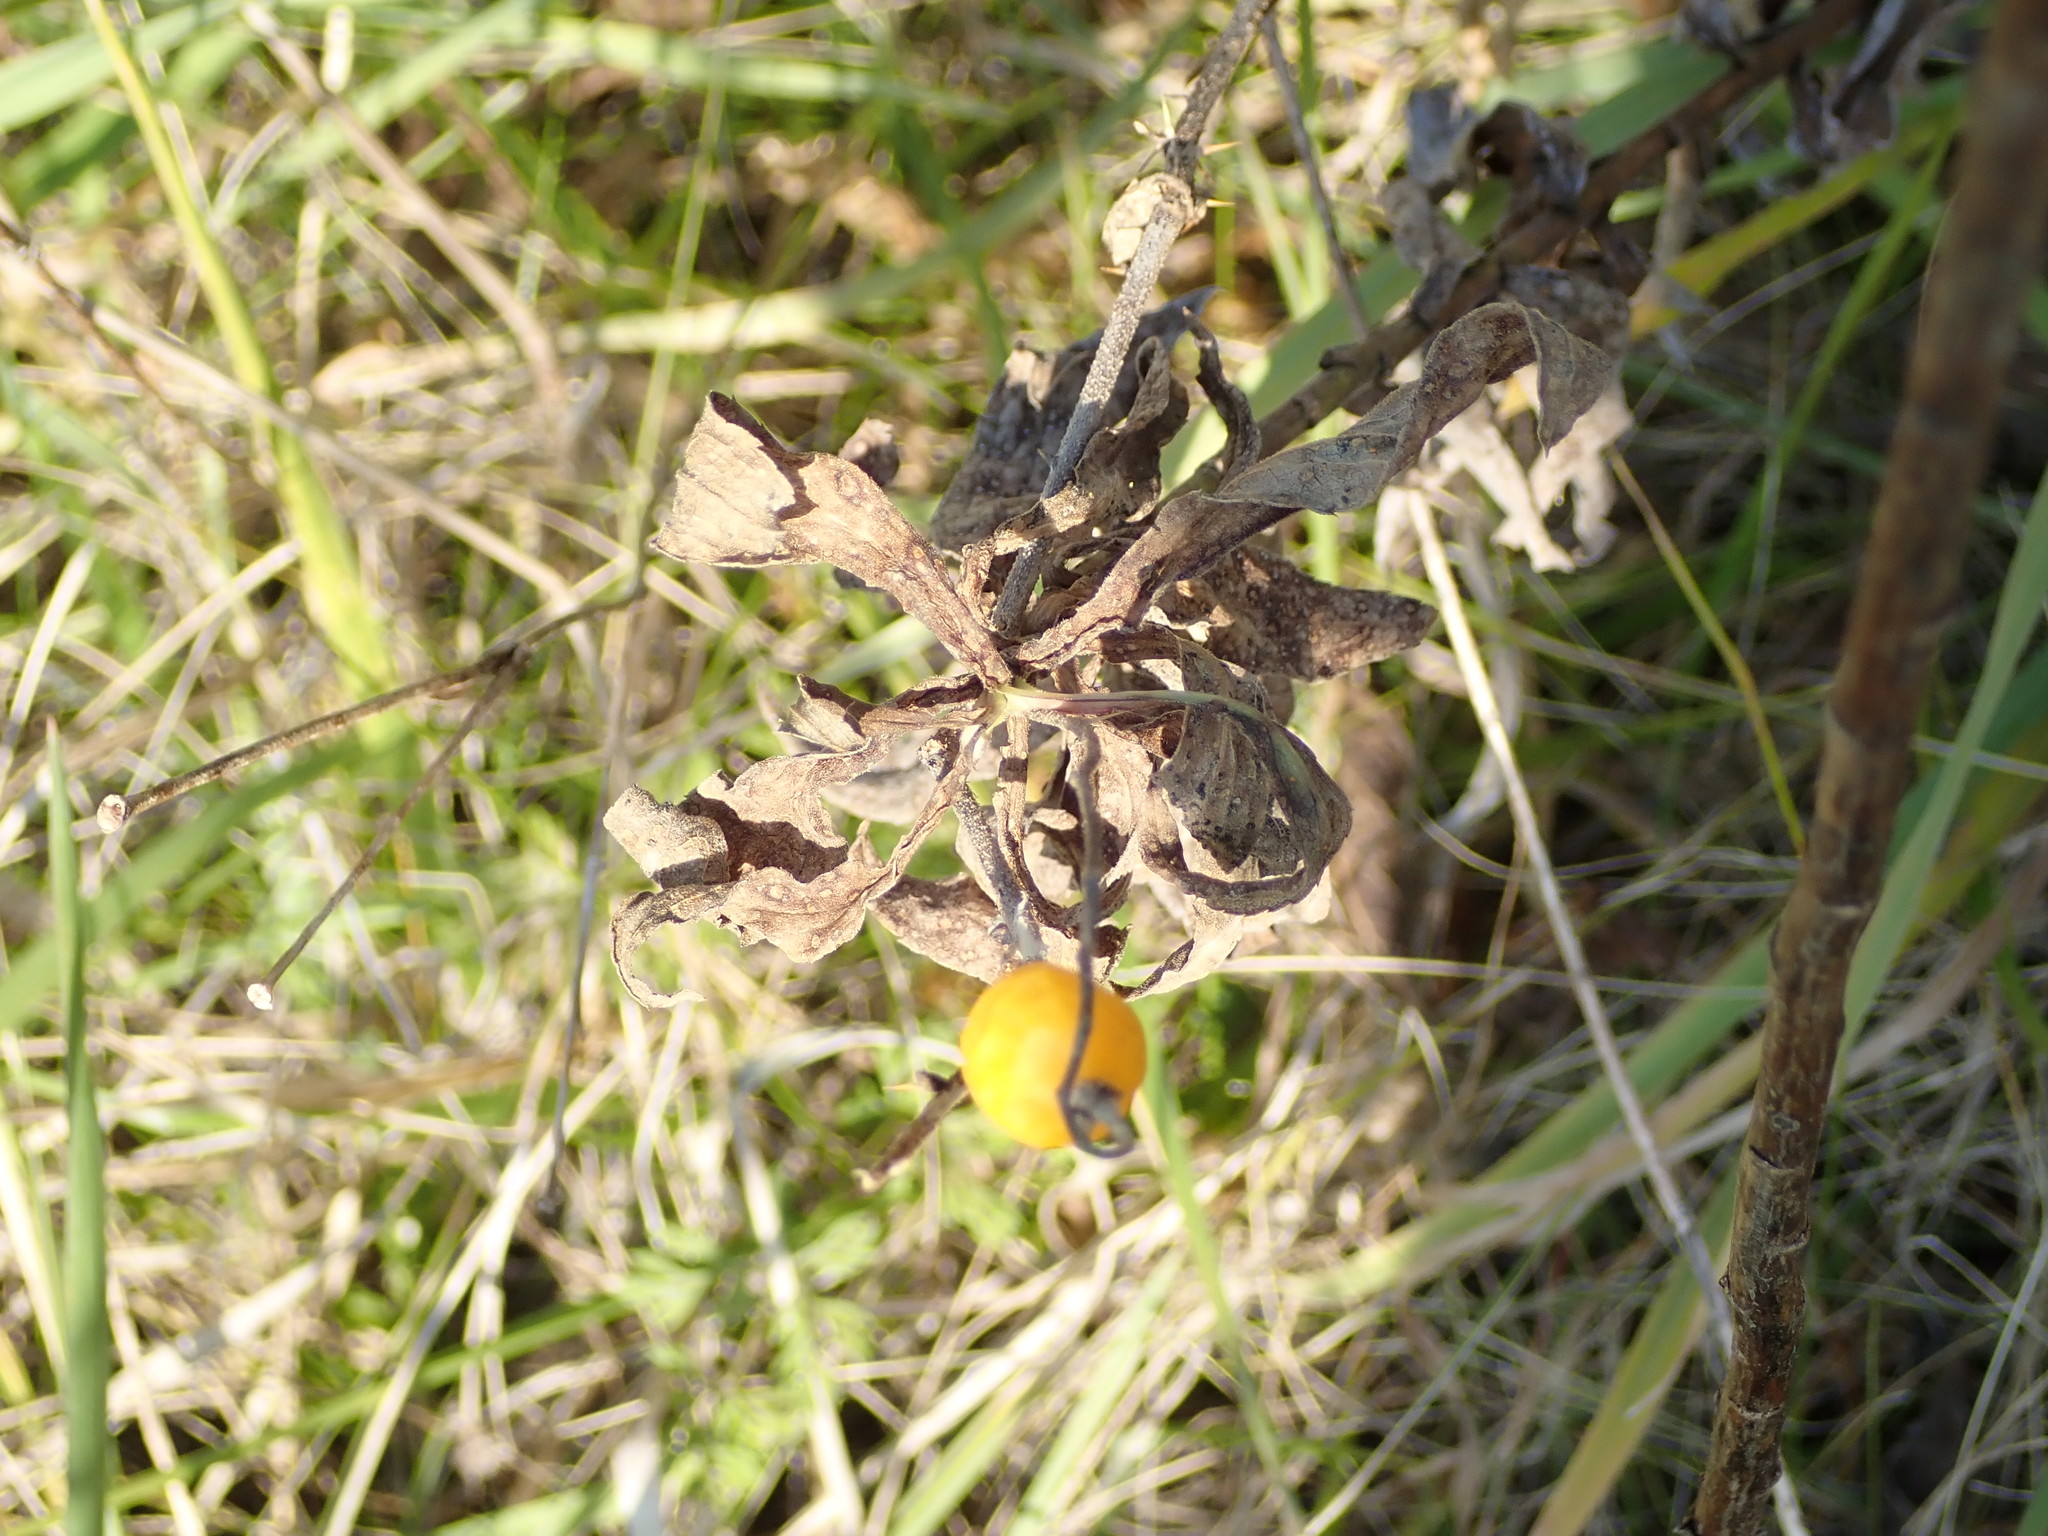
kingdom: Plantae
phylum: Tracheophyta
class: Magnoliopsida
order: Solanales
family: Solanaceae
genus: Solanum
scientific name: Solanum carolinense
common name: Horse-nettle
